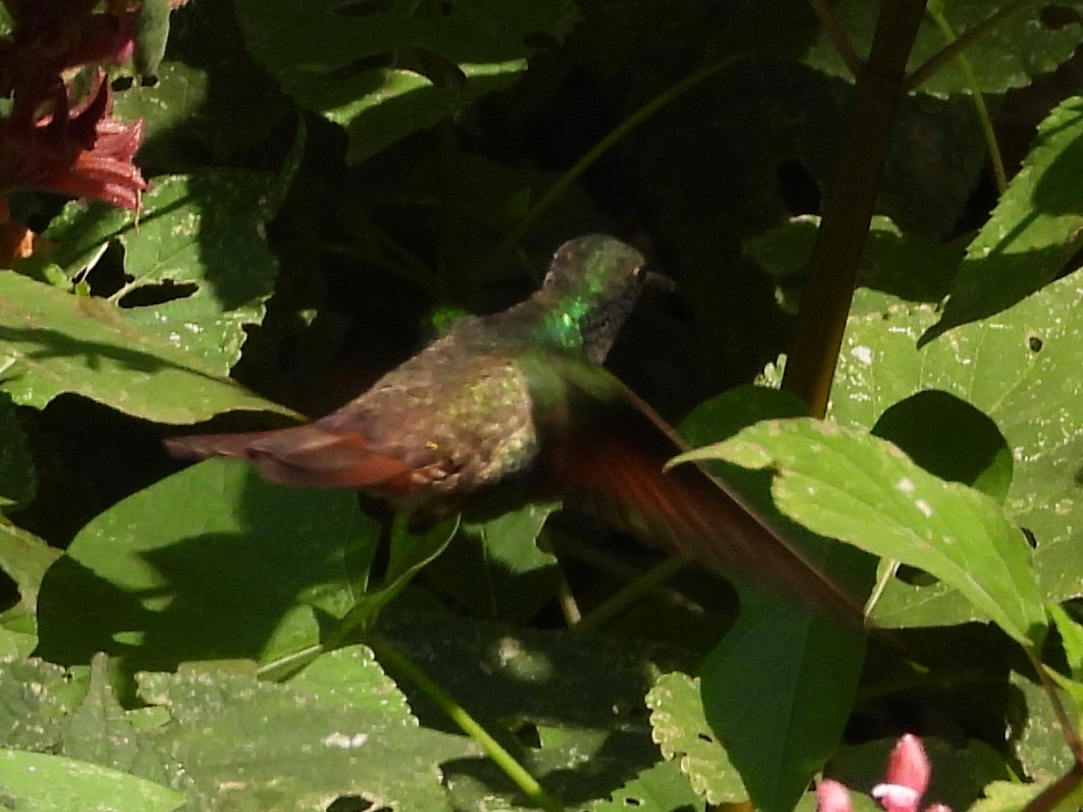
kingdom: Animalia
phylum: Chordata
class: Aves
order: Apodiformes
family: Trochilidae
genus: Saucerottia
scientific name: Saucerottia beryllina
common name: Berylline hummingbird
